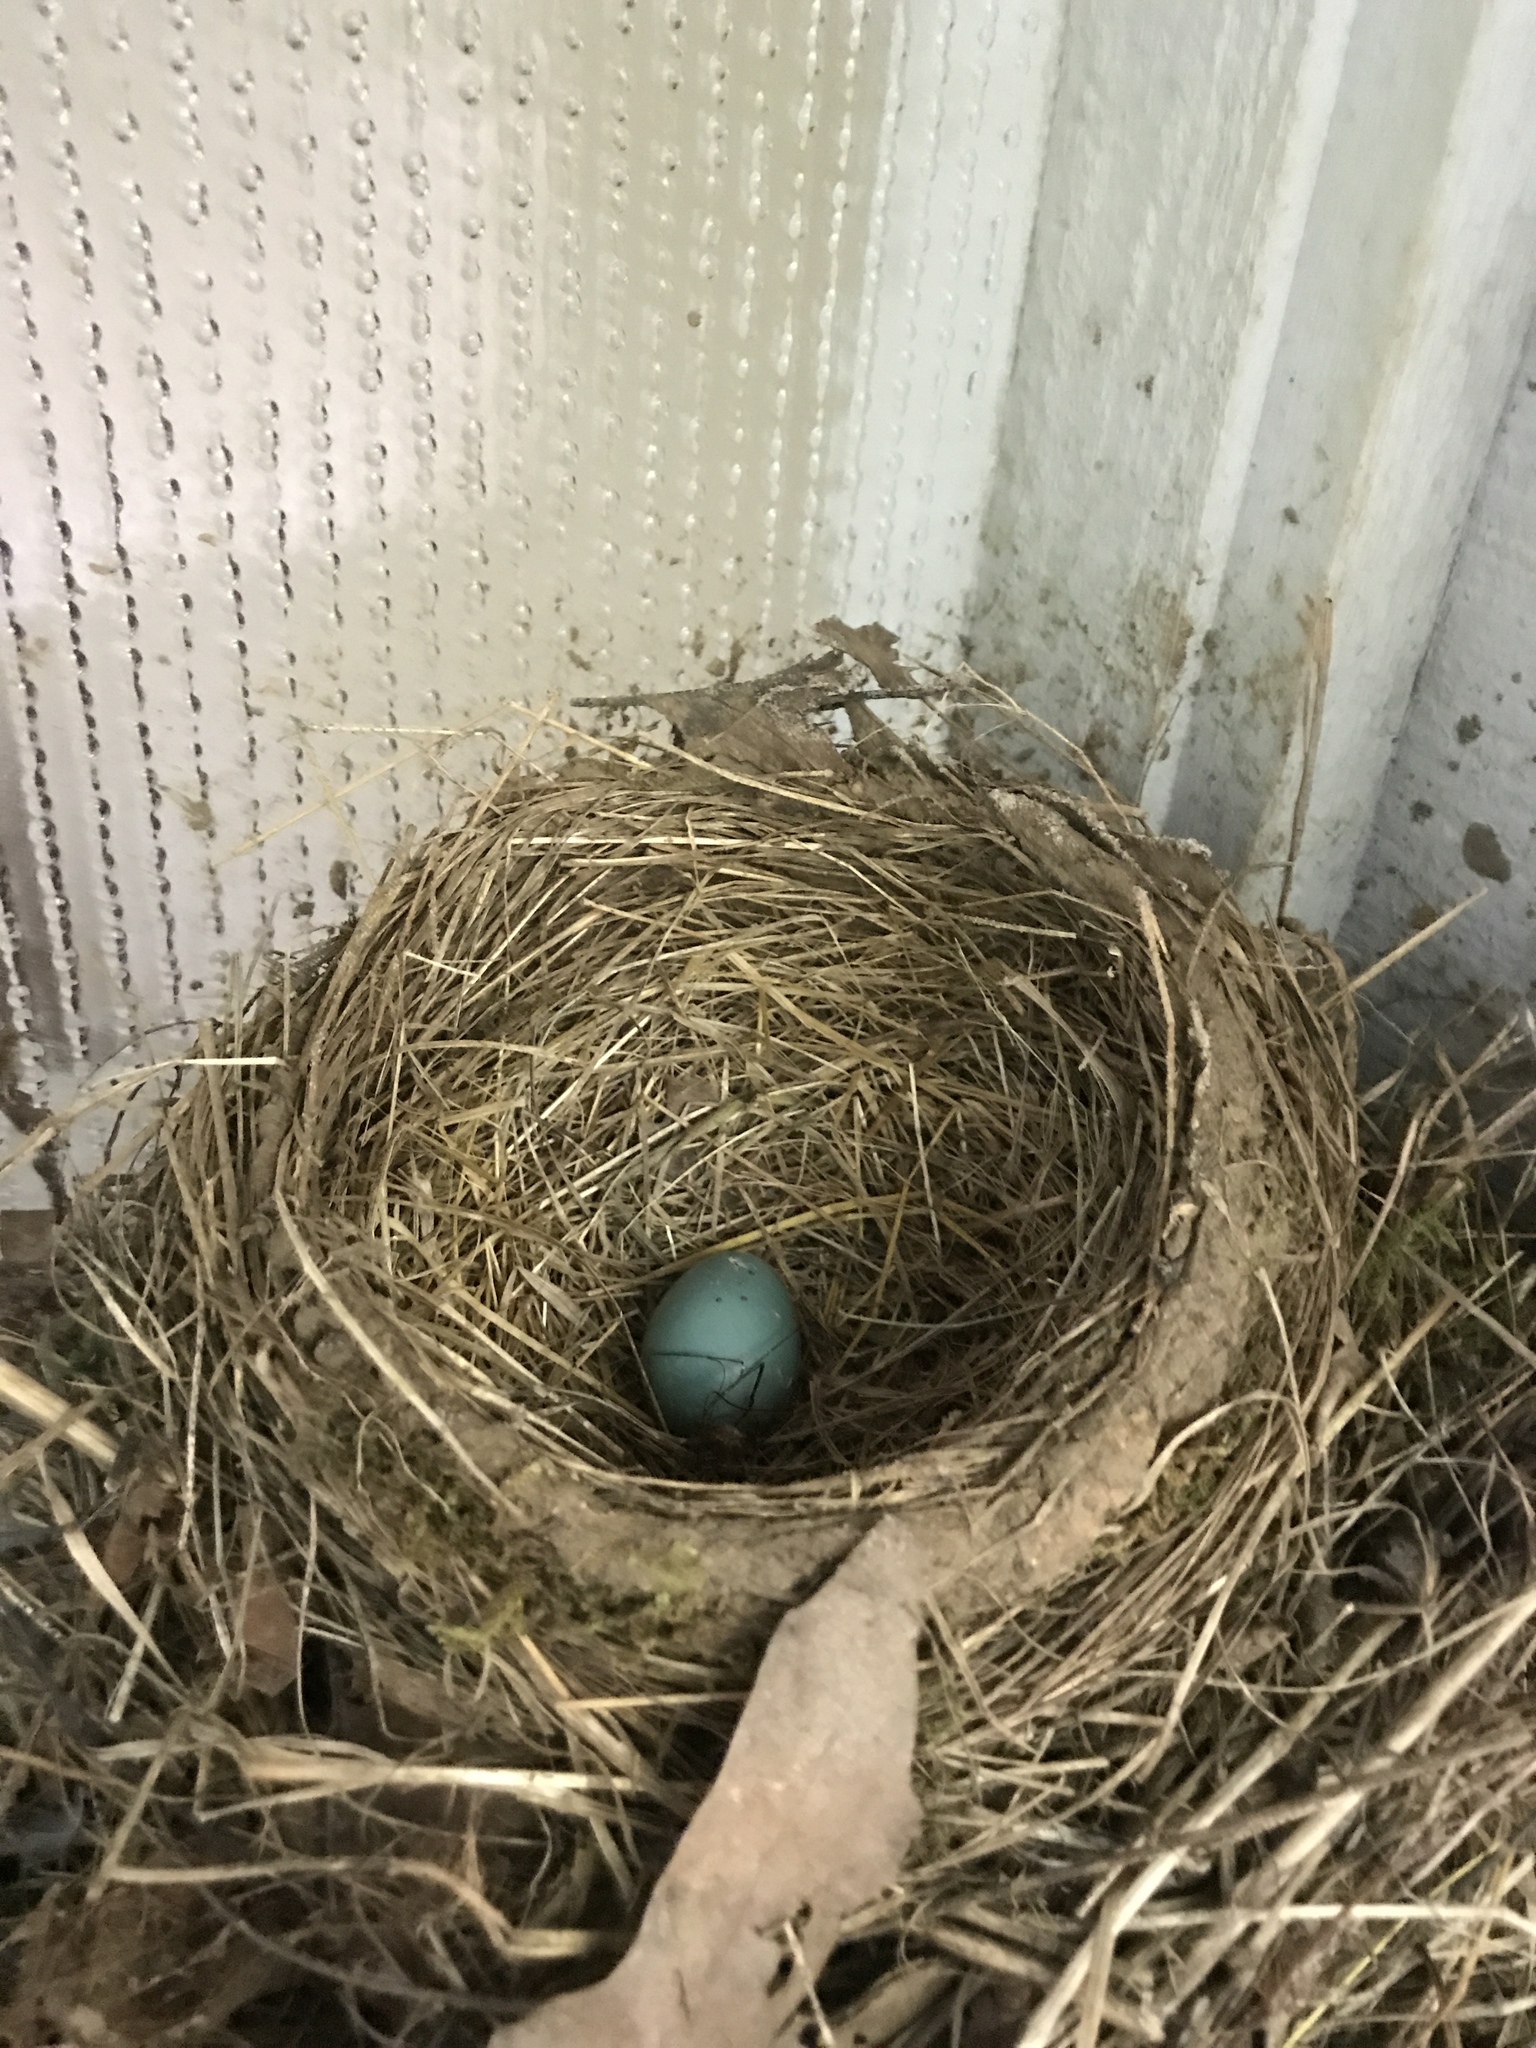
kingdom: Animalia
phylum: Chordata
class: Aves
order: Passeriformes
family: Turdidae
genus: Turdus
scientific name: Turdus migratorius
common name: American robin
